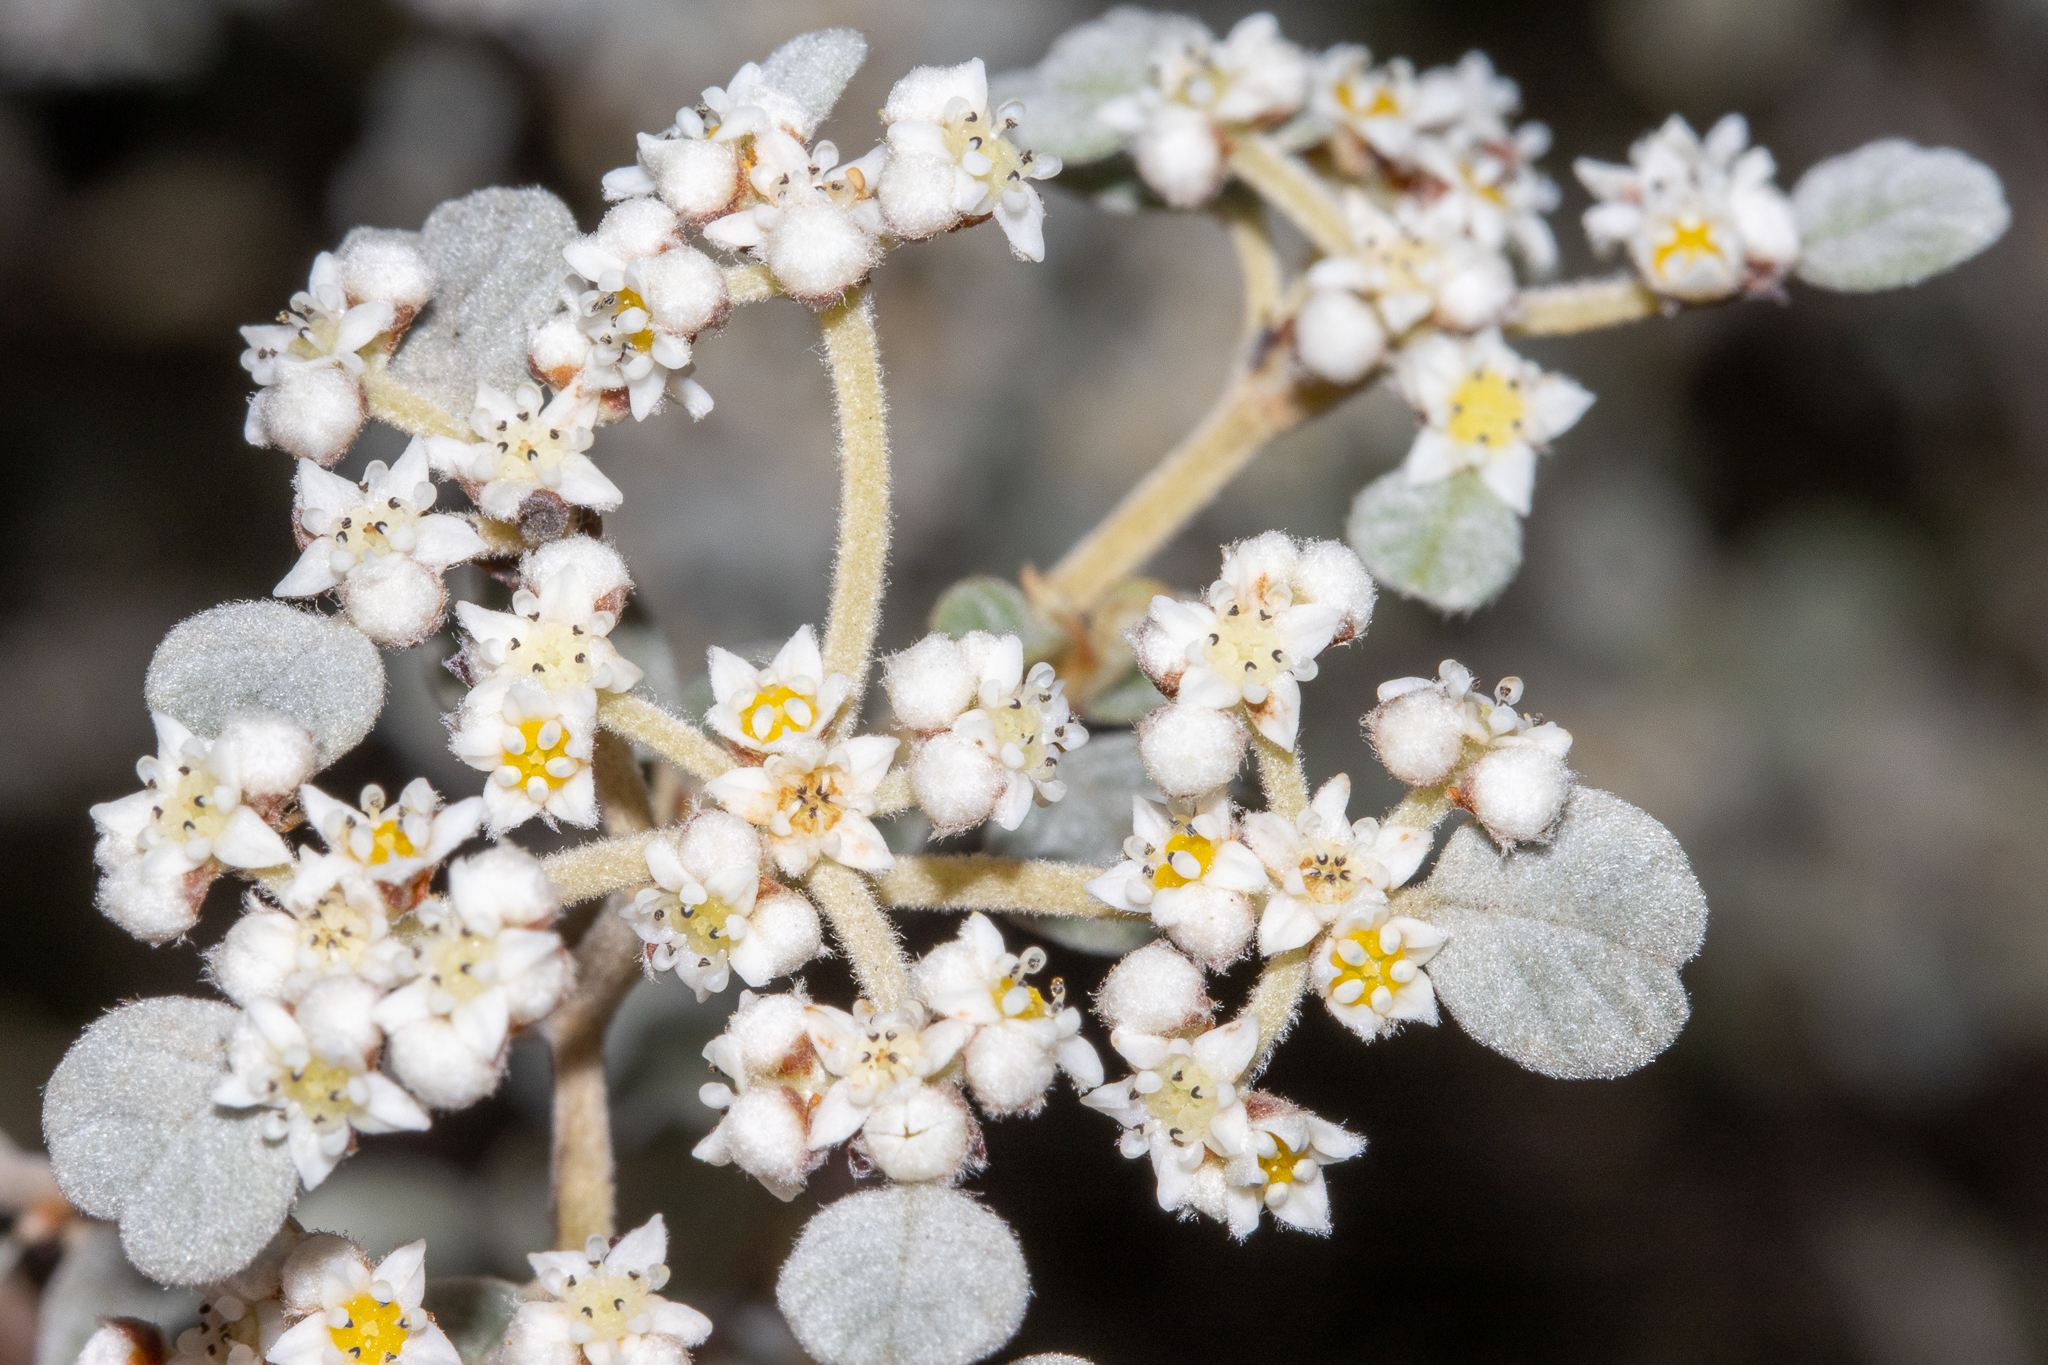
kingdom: Plantae
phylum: Tracheophyta
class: Magnoliopsida
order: Rosales
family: Rhamnaceae
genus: Spyridium
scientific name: Spyridium parvifolium
